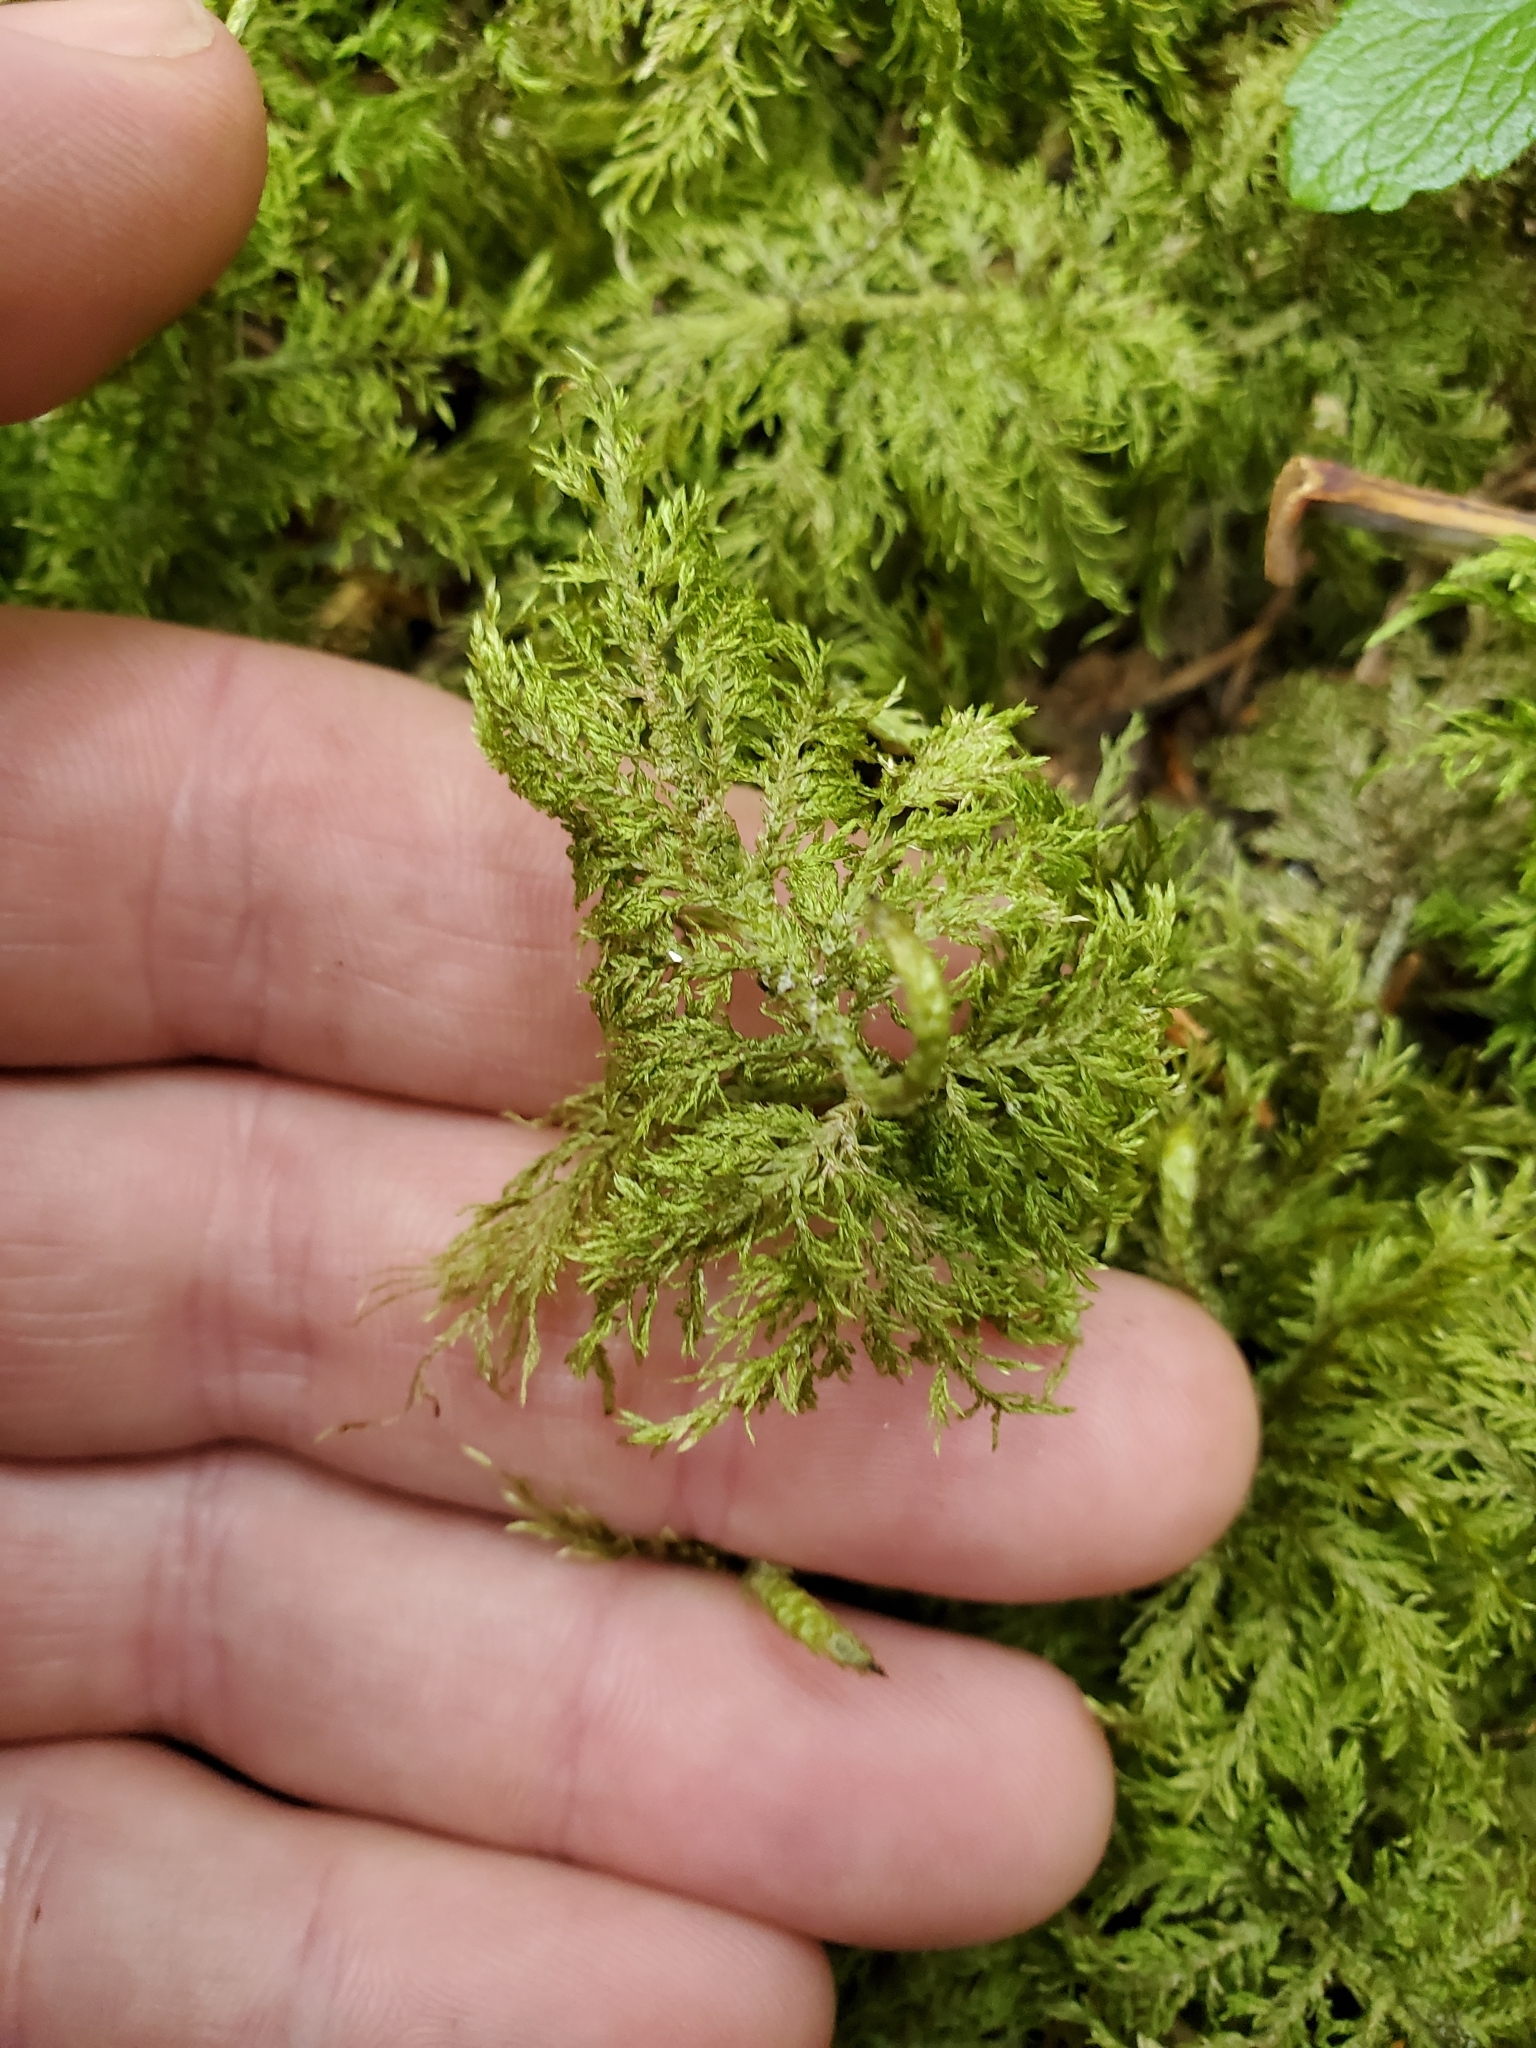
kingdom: Plantae
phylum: Bryophyta
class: Bryopsida
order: Hypnales
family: Hylocomiaceae
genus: Hylocomium
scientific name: Hylocomium splendens
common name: Stairstep moss
